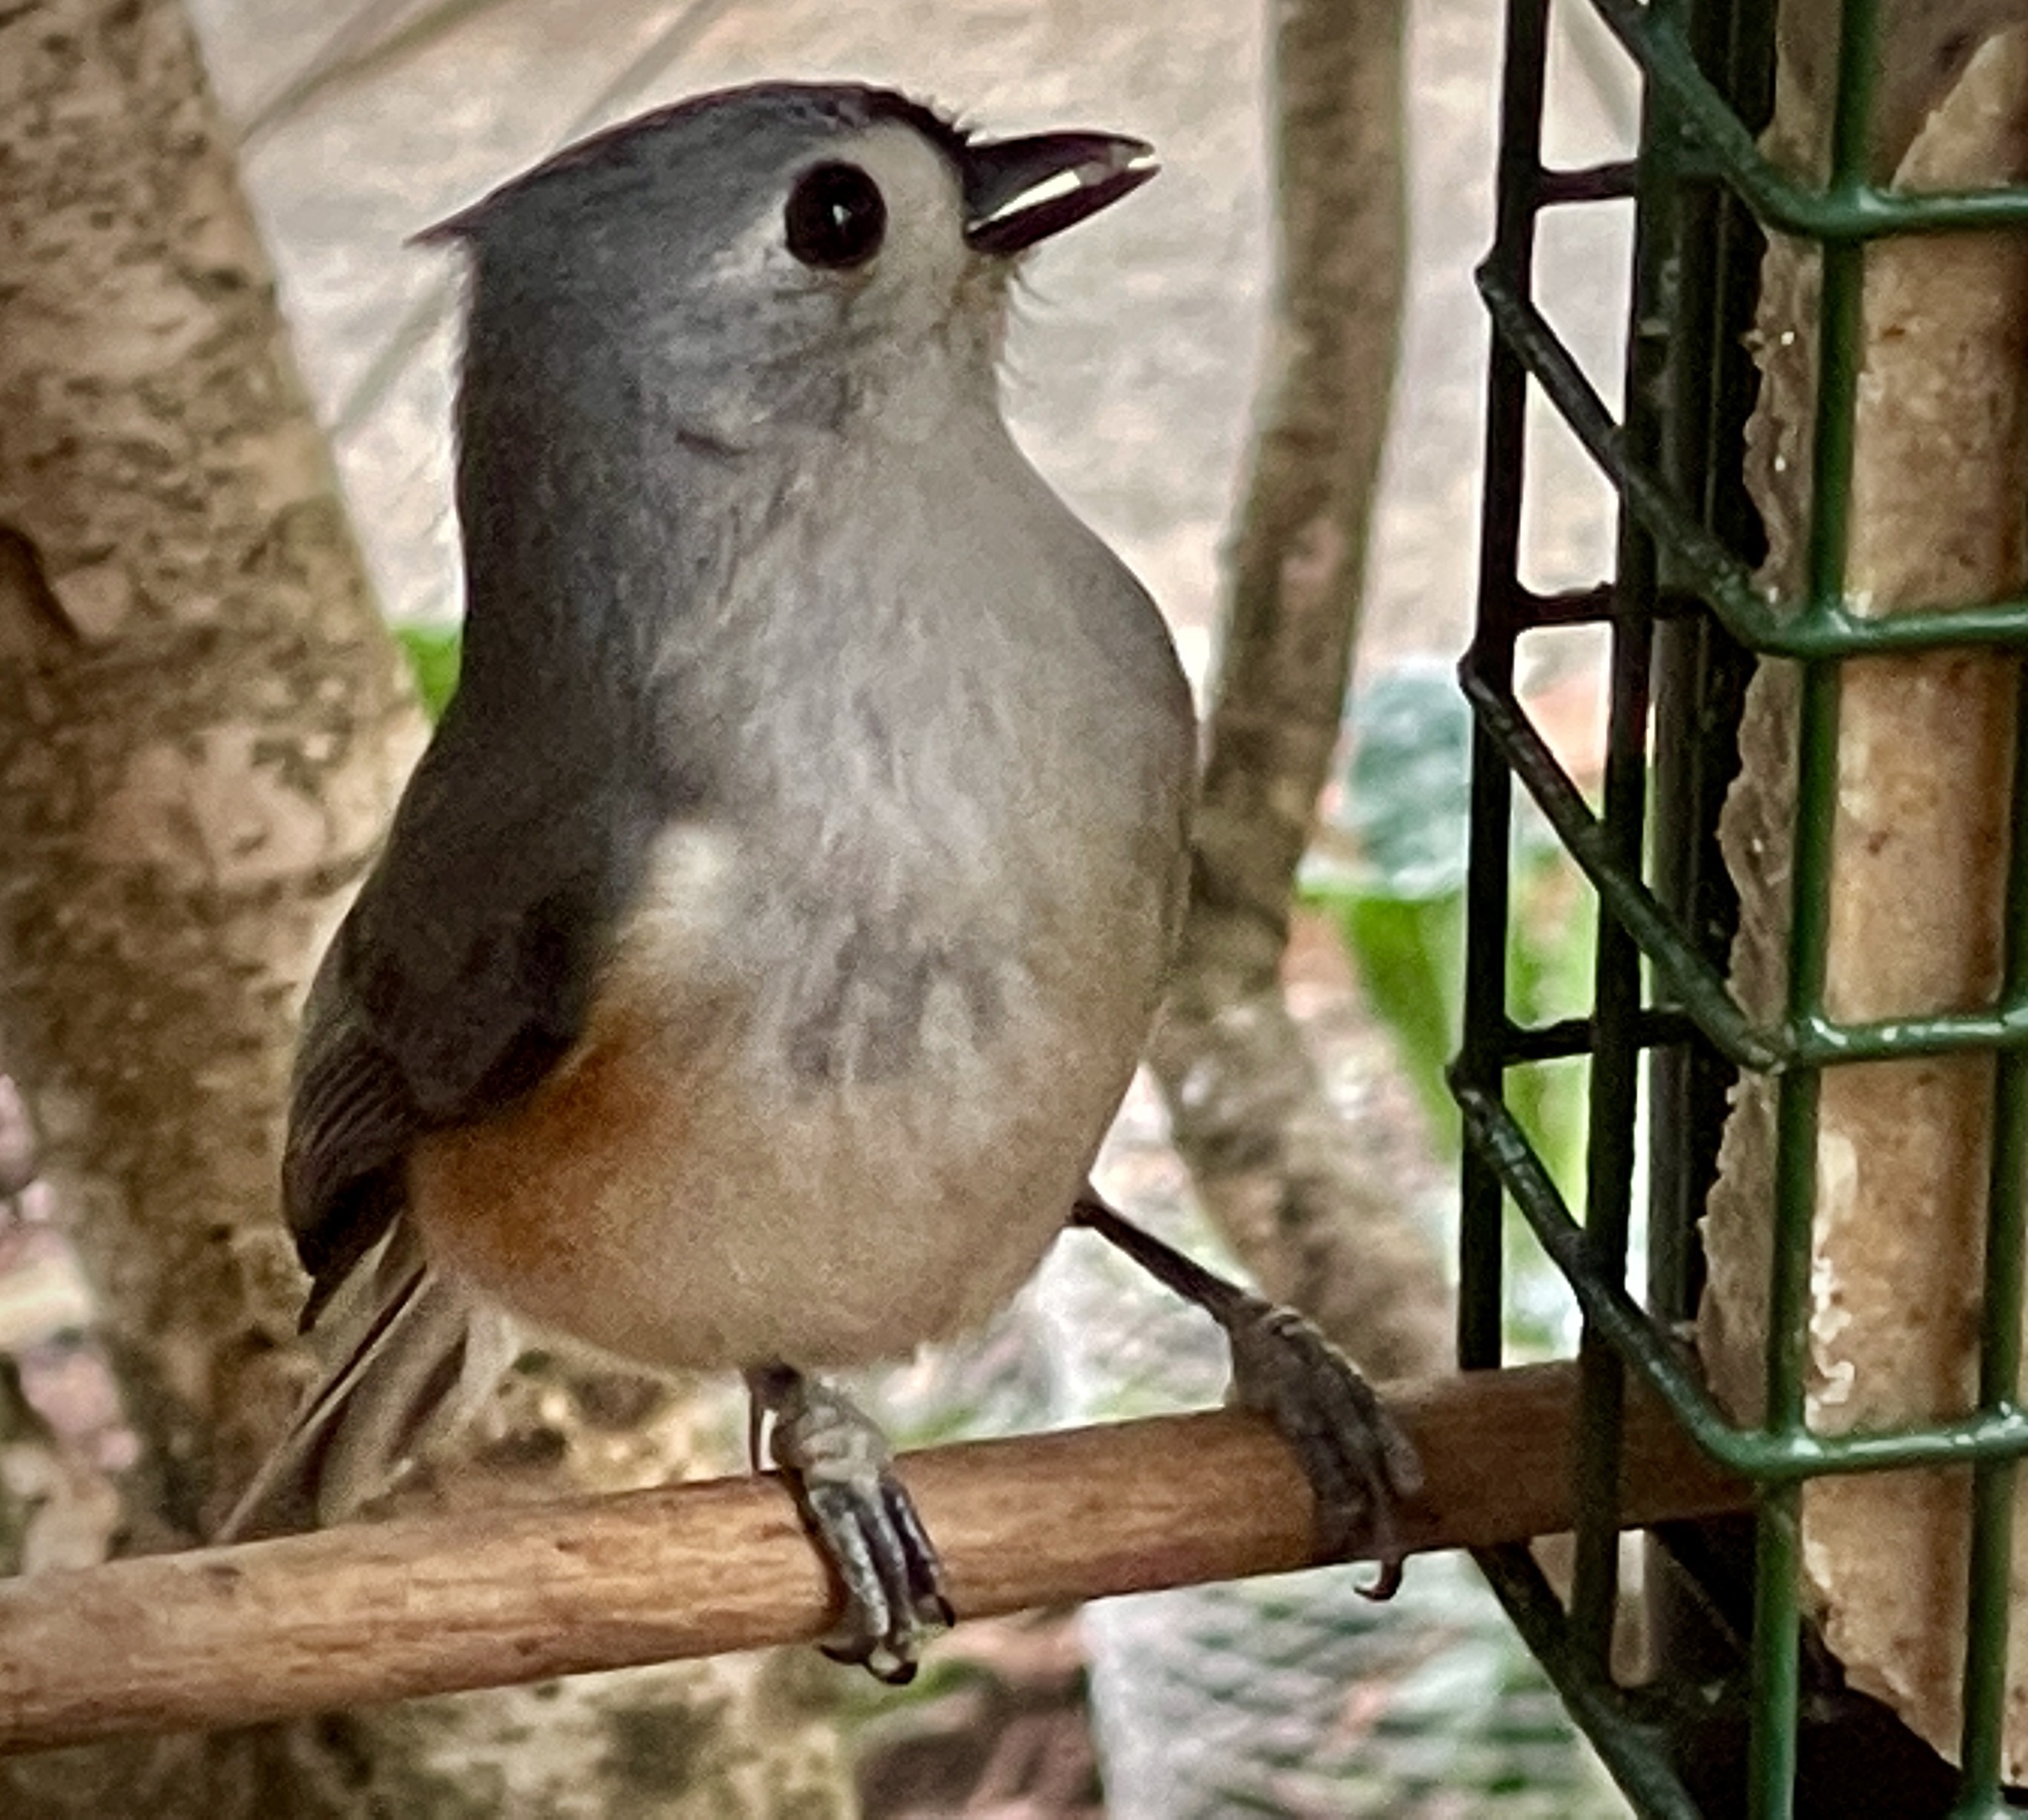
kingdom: Animalia
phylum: Chordata
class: Aves
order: Passeriformes
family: Paridae
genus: Baeolophus
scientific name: Baeolophus bicolor
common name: Tufted titmouse
